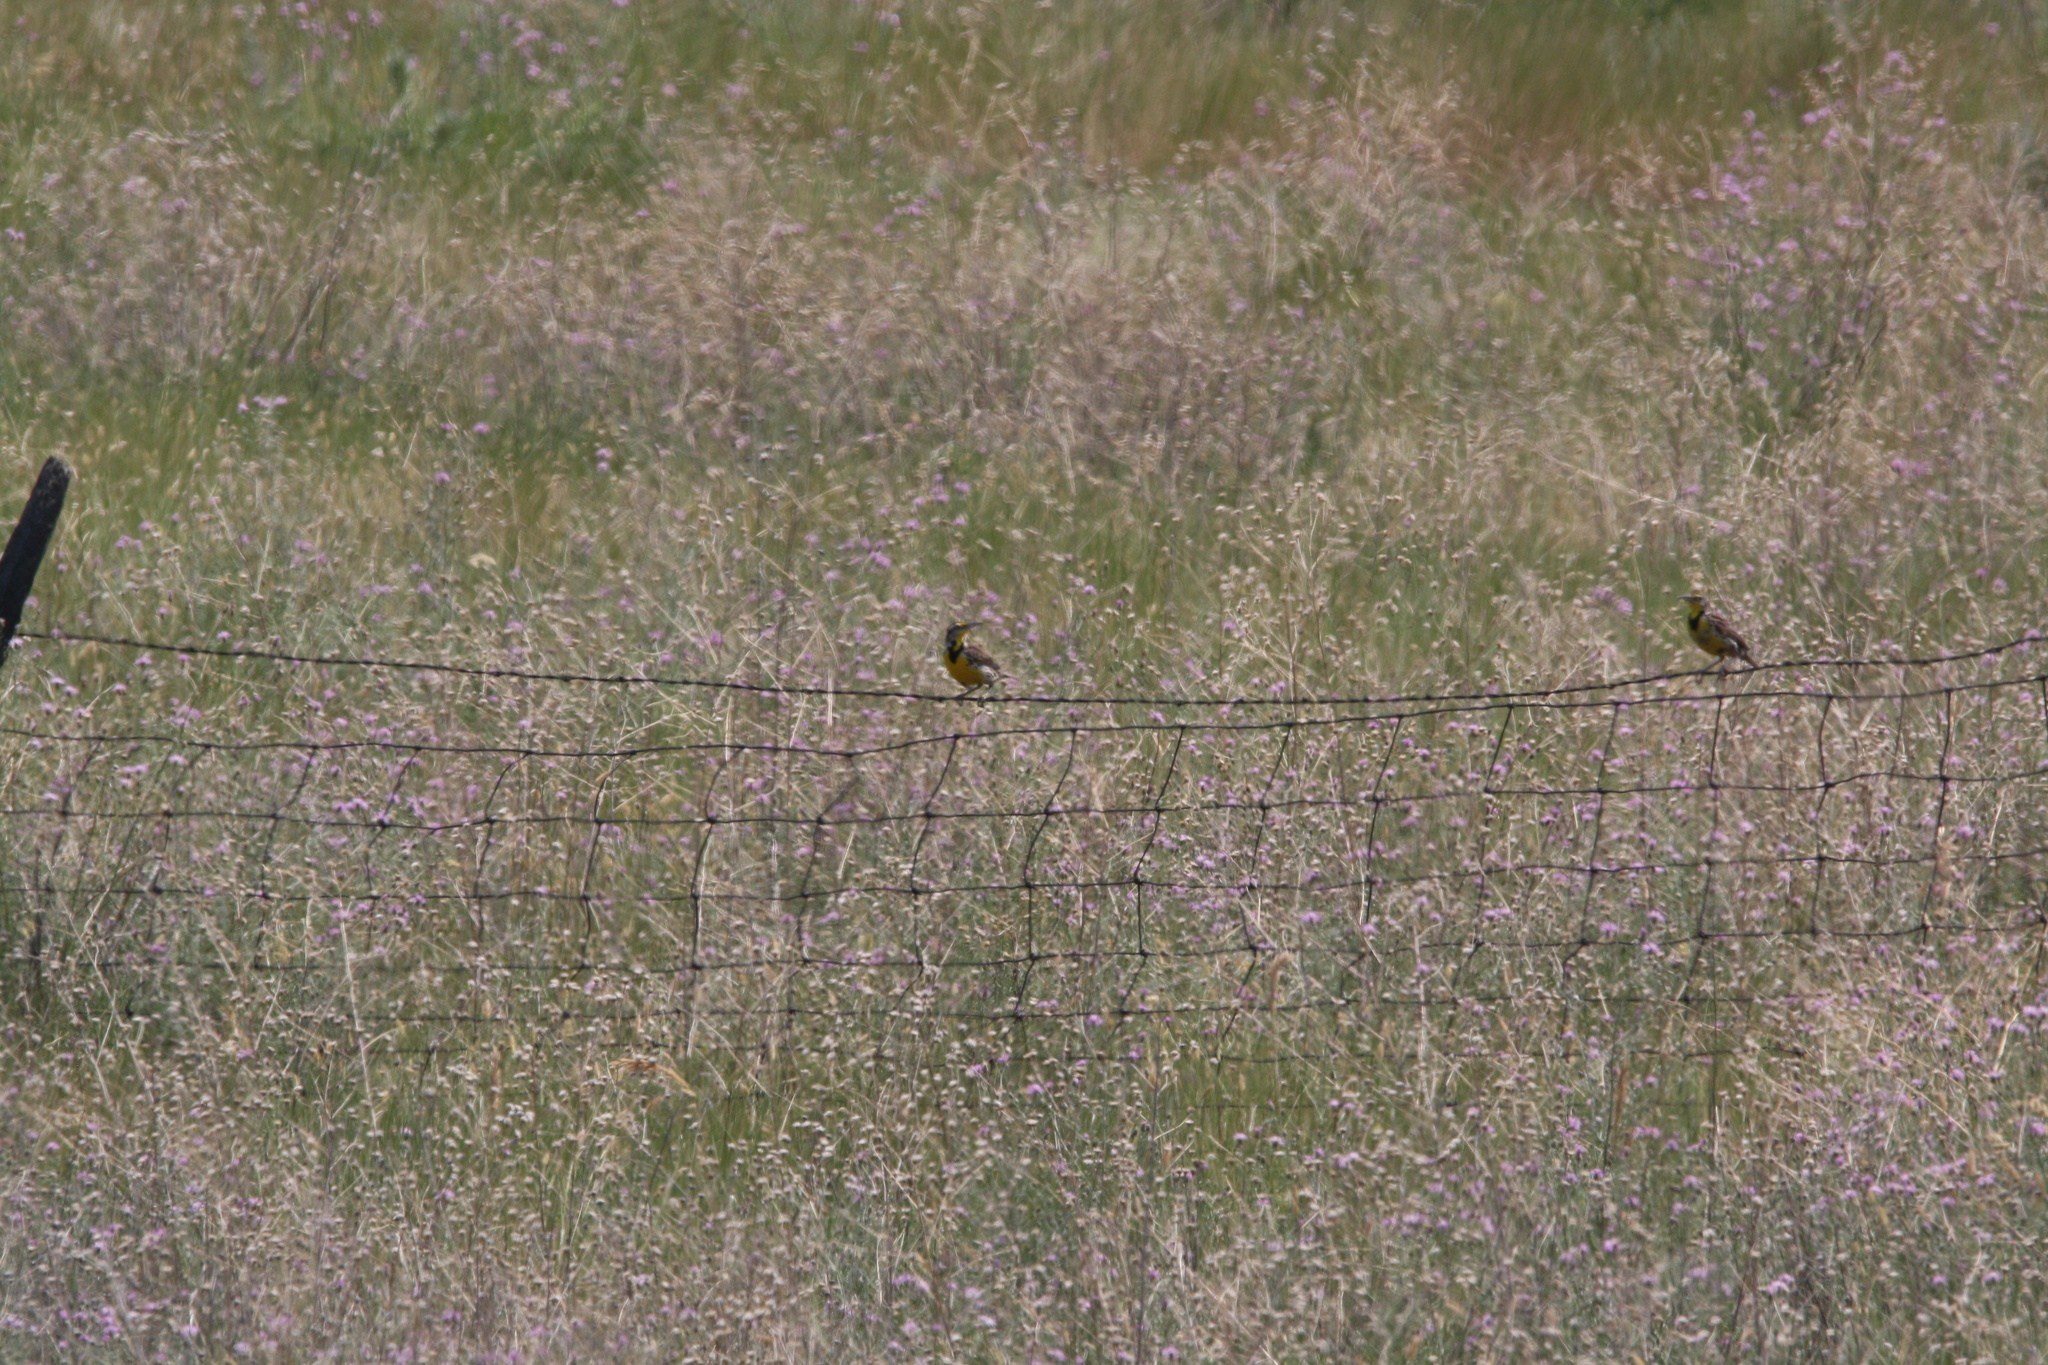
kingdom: Animalia
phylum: Chordata
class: Aves
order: Passeriformes
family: Icteridae
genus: Sturnella
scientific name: Sturnella neglecta
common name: Western meadowlark
